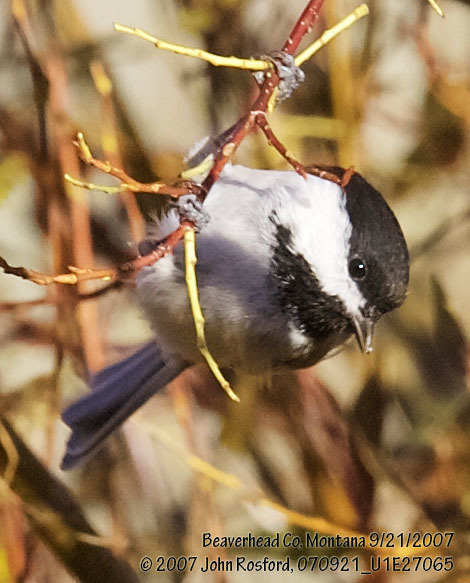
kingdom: Animalia
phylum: Chordata
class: Aves
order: Passeriformes
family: Paridae
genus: Poecile
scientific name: Poecile atricapillus
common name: Black-capped chickadee
